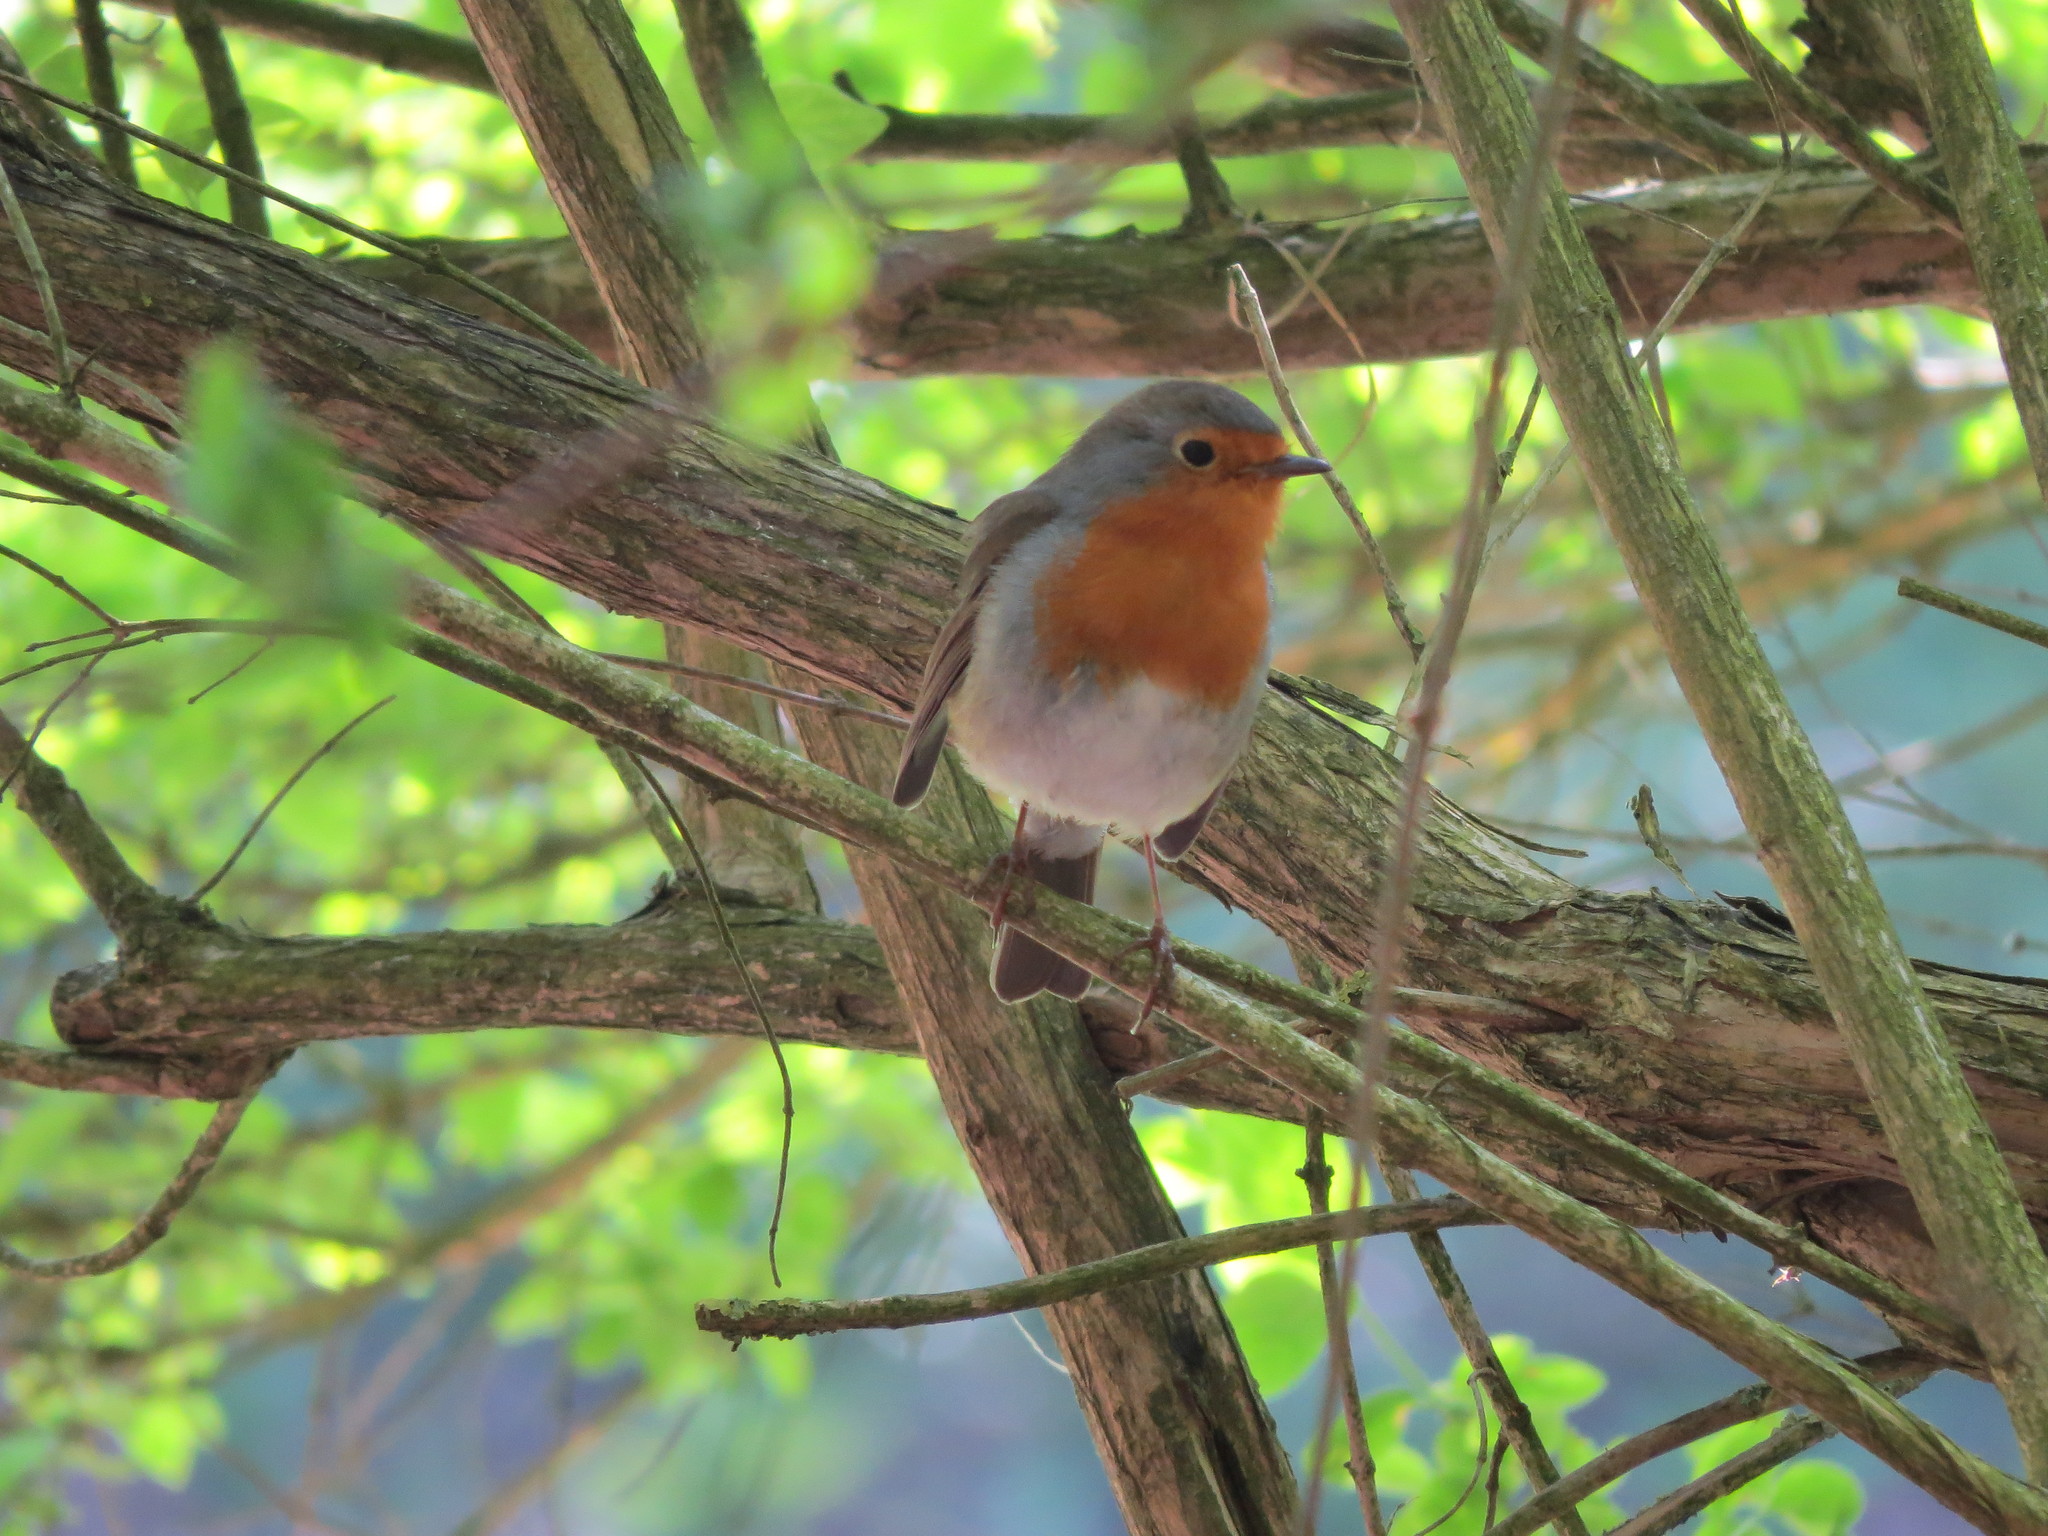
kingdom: Animalia
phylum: Chordata
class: Aves
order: Passeriformes
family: Muscicapidae
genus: Erithacus
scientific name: Erithacus rubecula
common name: European robin
